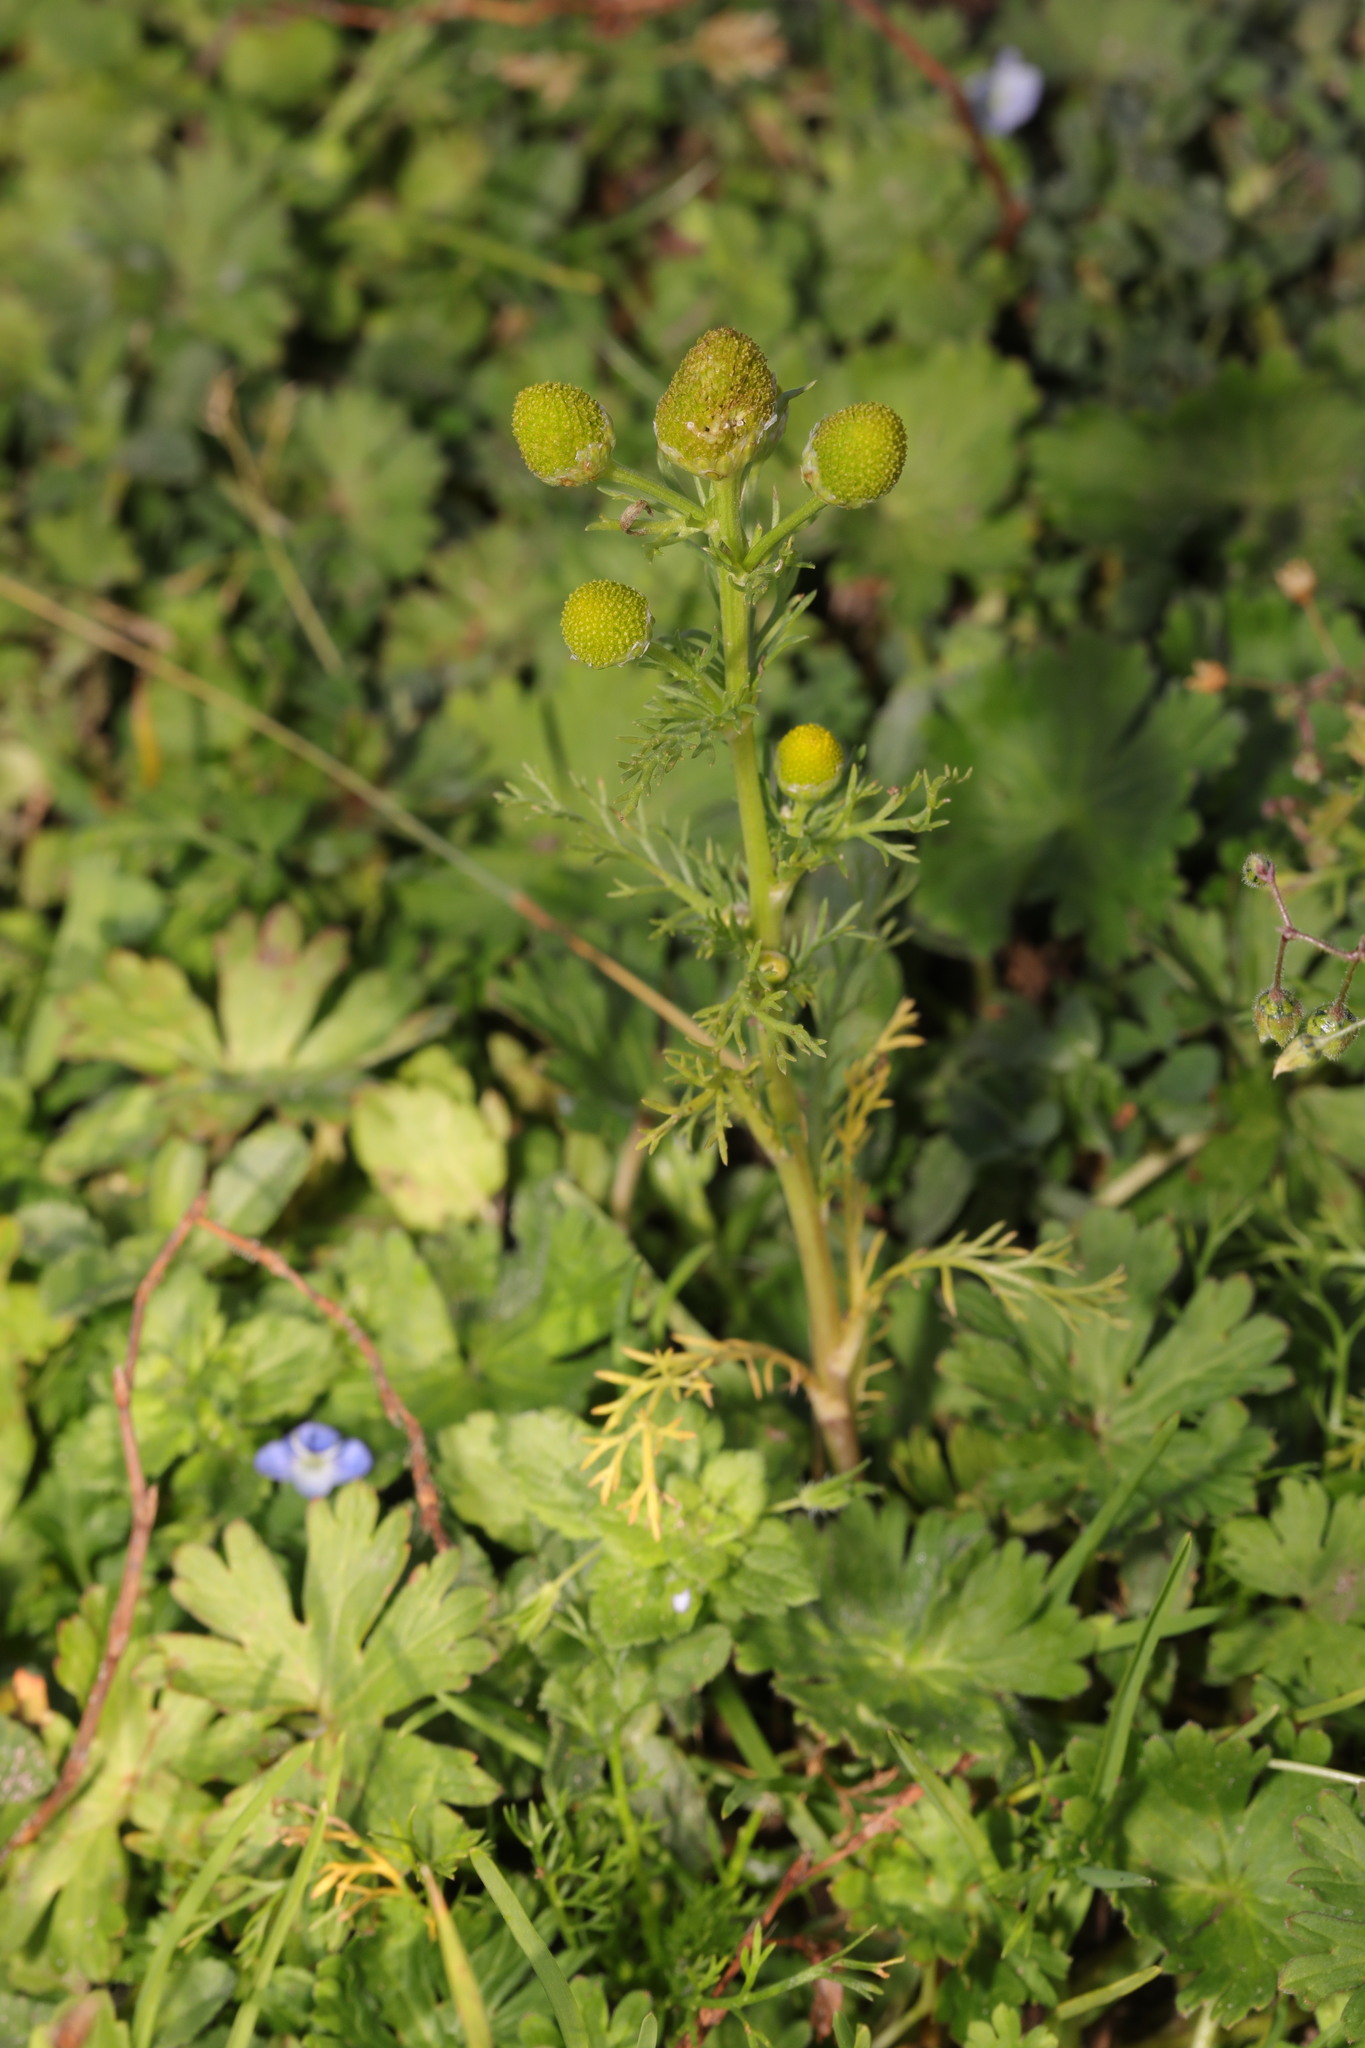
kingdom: Plantae
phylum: Tracheophyta
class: Magnoliopsida
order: Asterales
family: Asteraceae
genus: Matricaria
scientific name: Matricaria discoidea
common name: Disc mayweed
